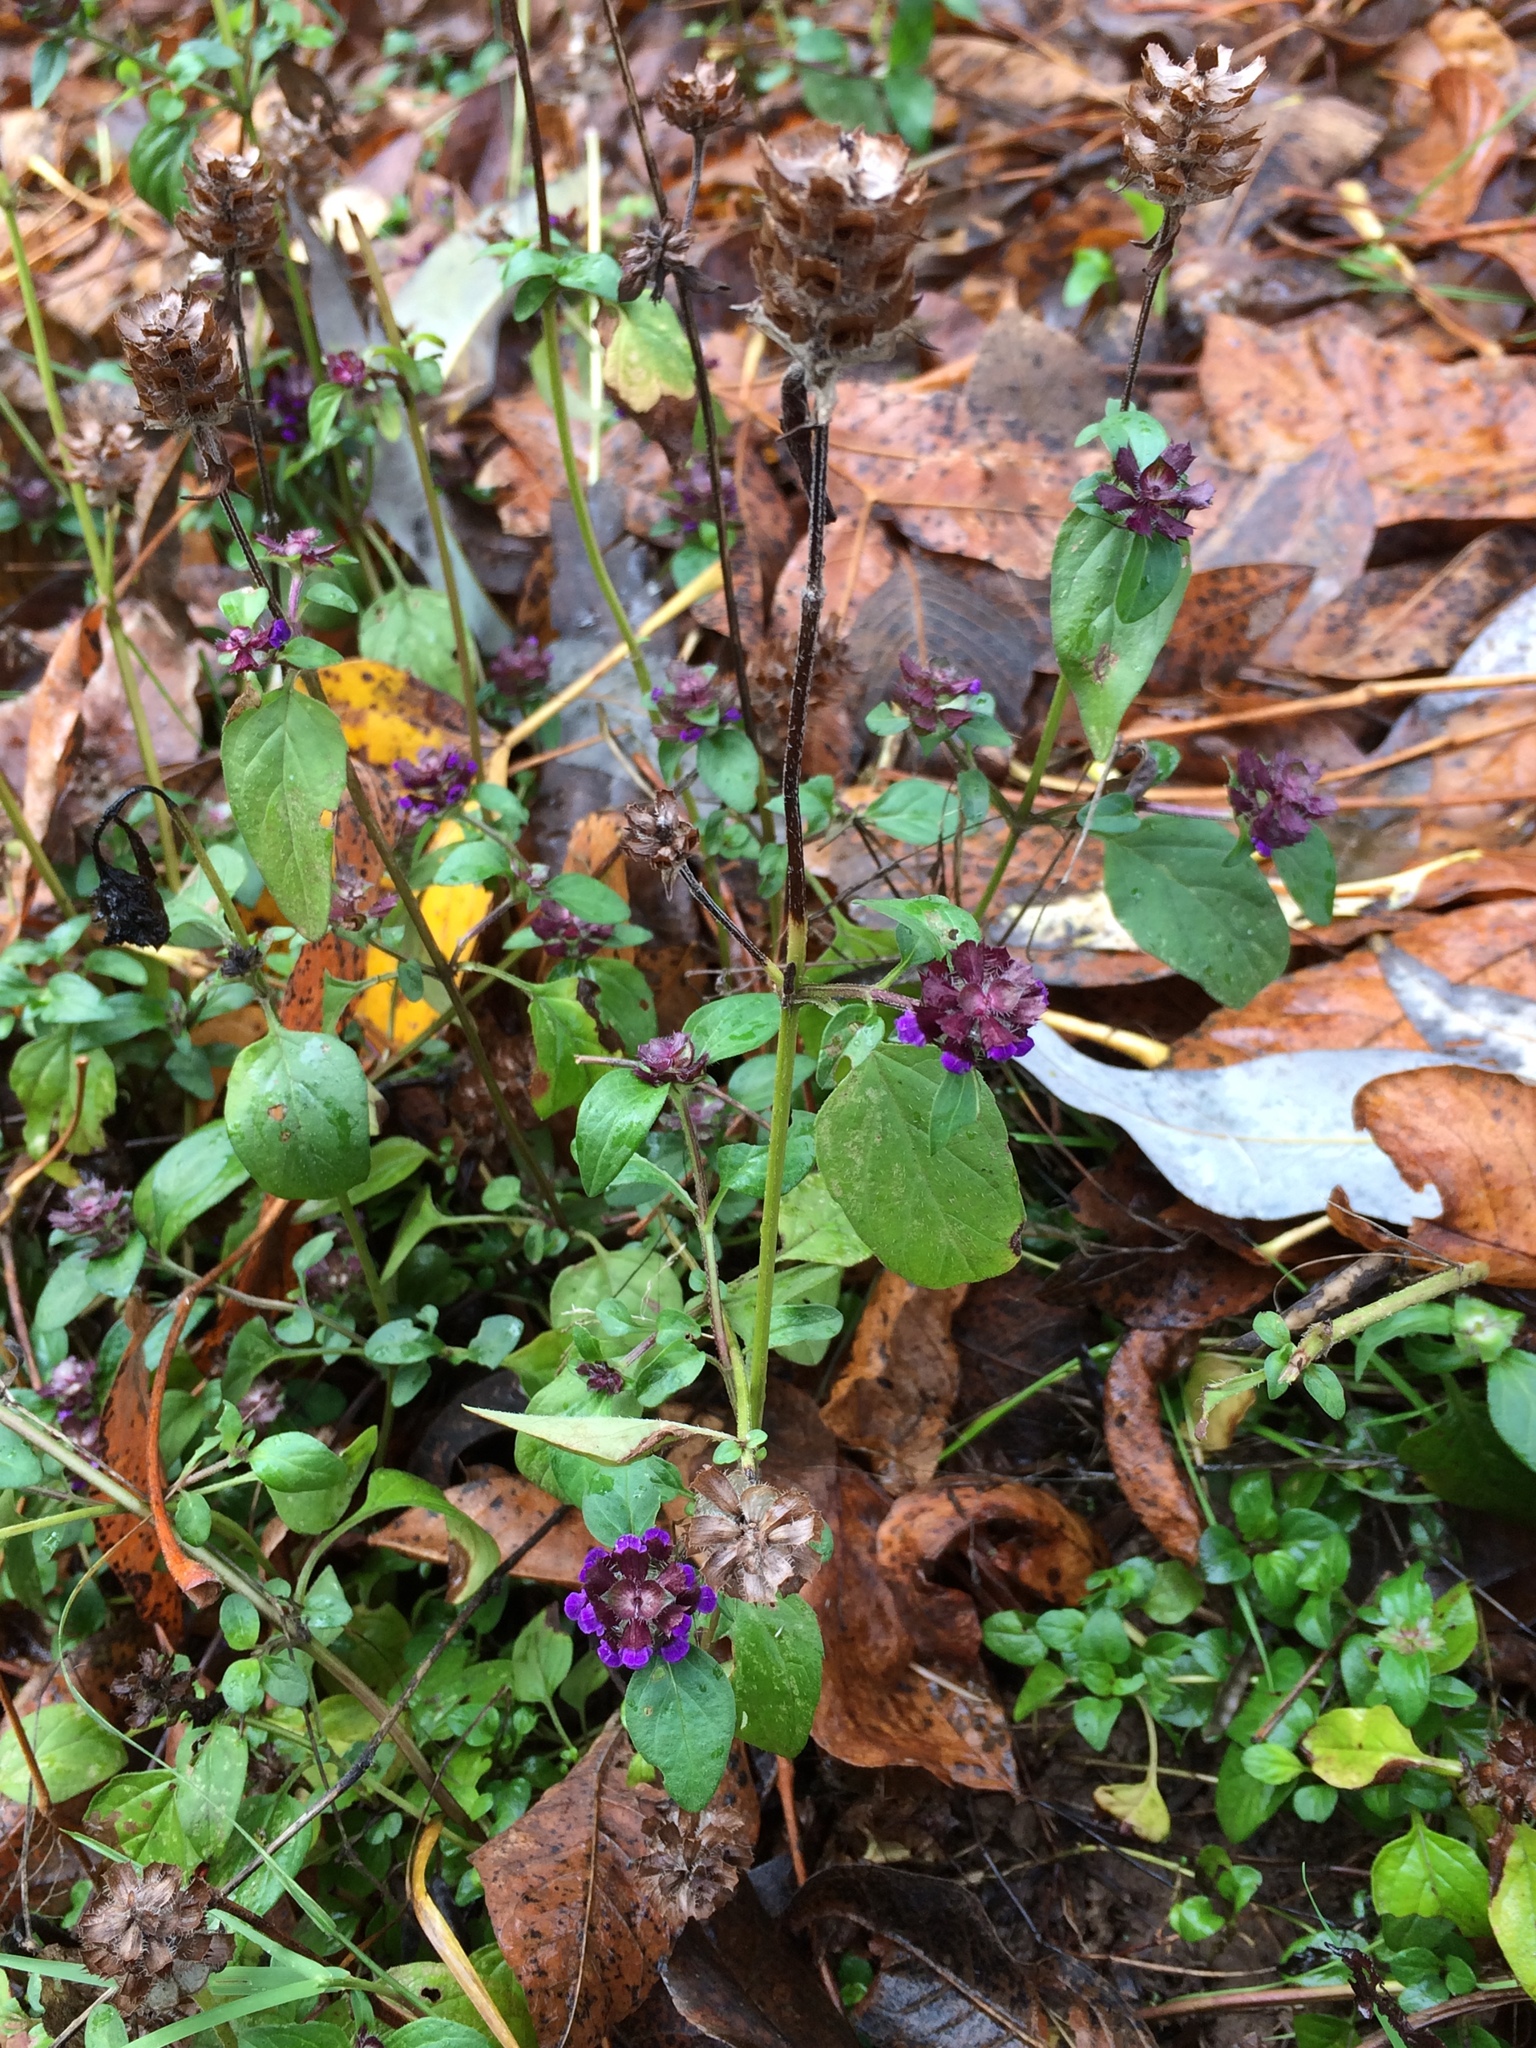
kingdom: Plantae
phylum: Tracheophyta
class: Magnoliopsida
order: Lamiales
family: Lamiaceae
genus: Prunella
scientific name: Prunella vulgaris
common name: Heal-all
